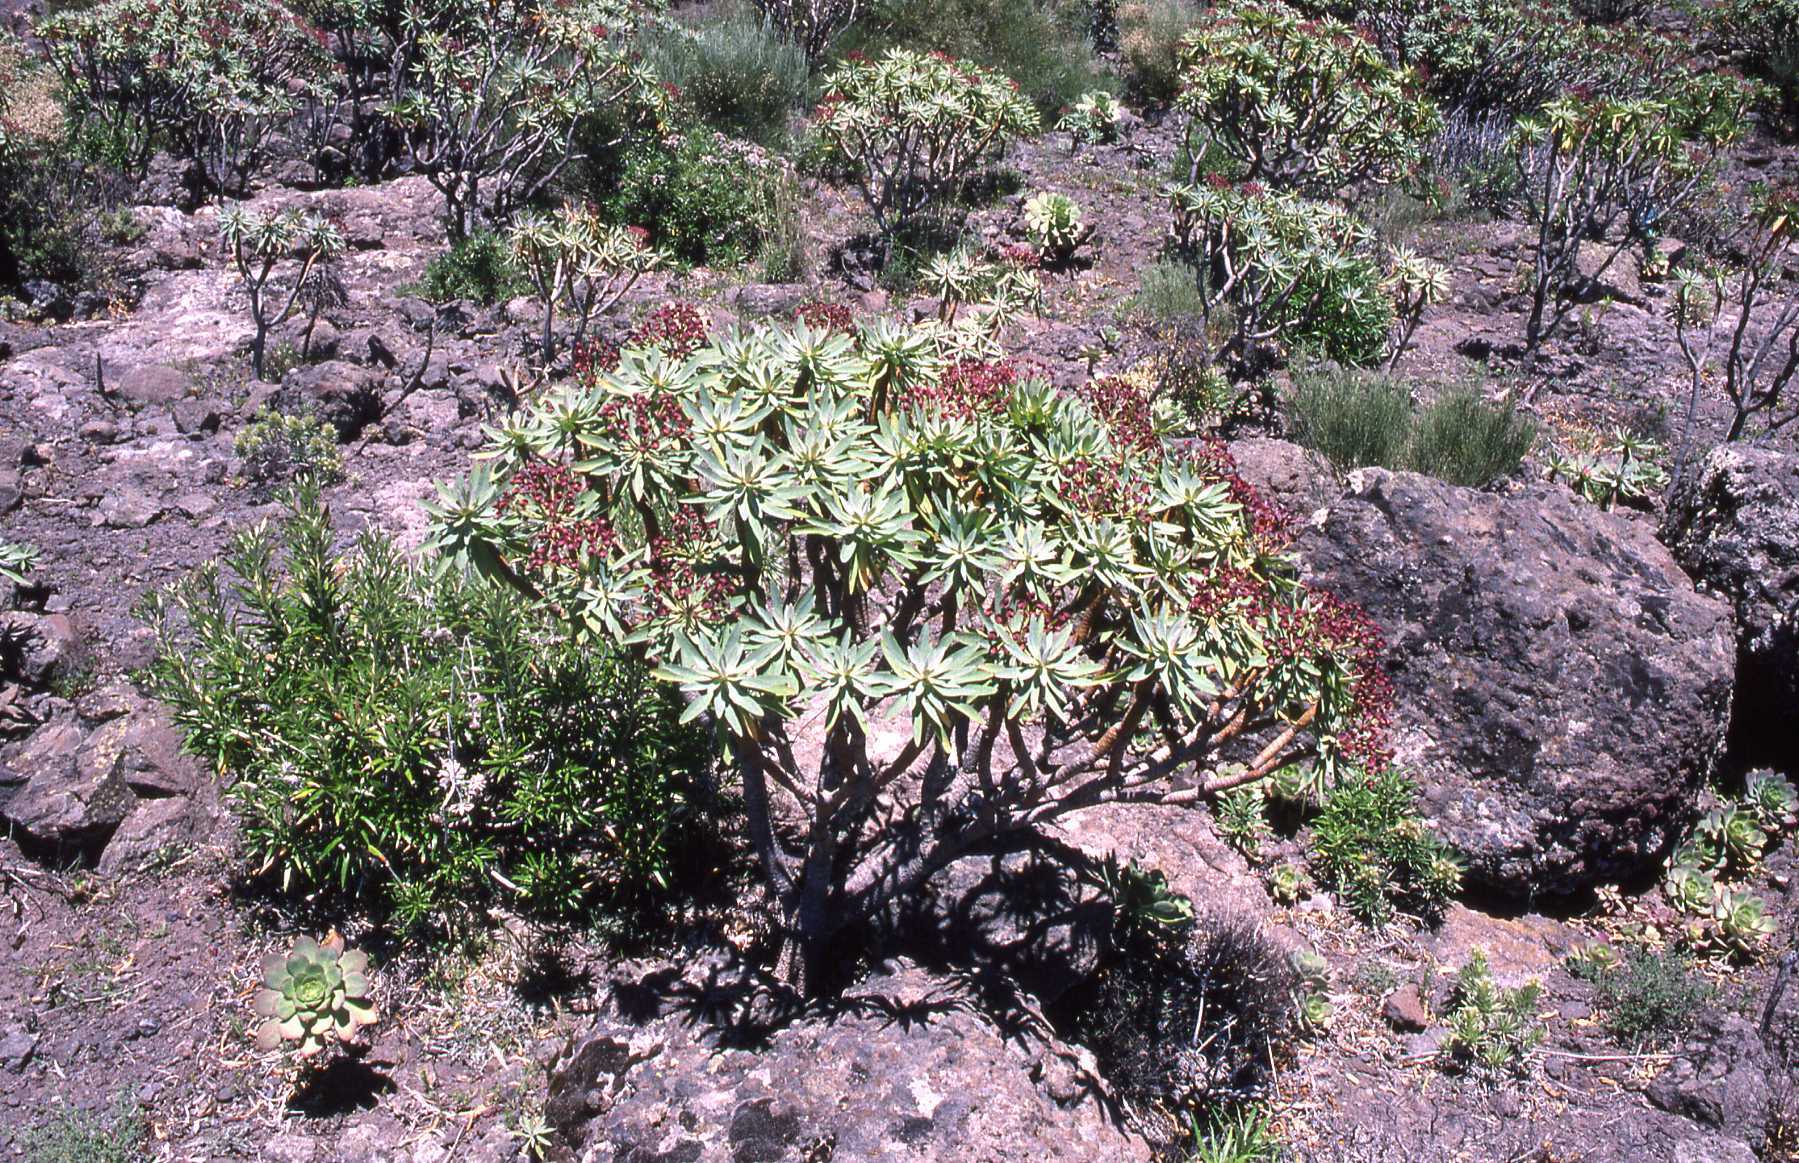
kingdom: Plantae
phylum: Tracheophyta
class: Magnoliopsida
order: Malpighiales
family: Euphorbiaceae
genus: Euphorbia
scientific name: Euphorbia atropurpurea
